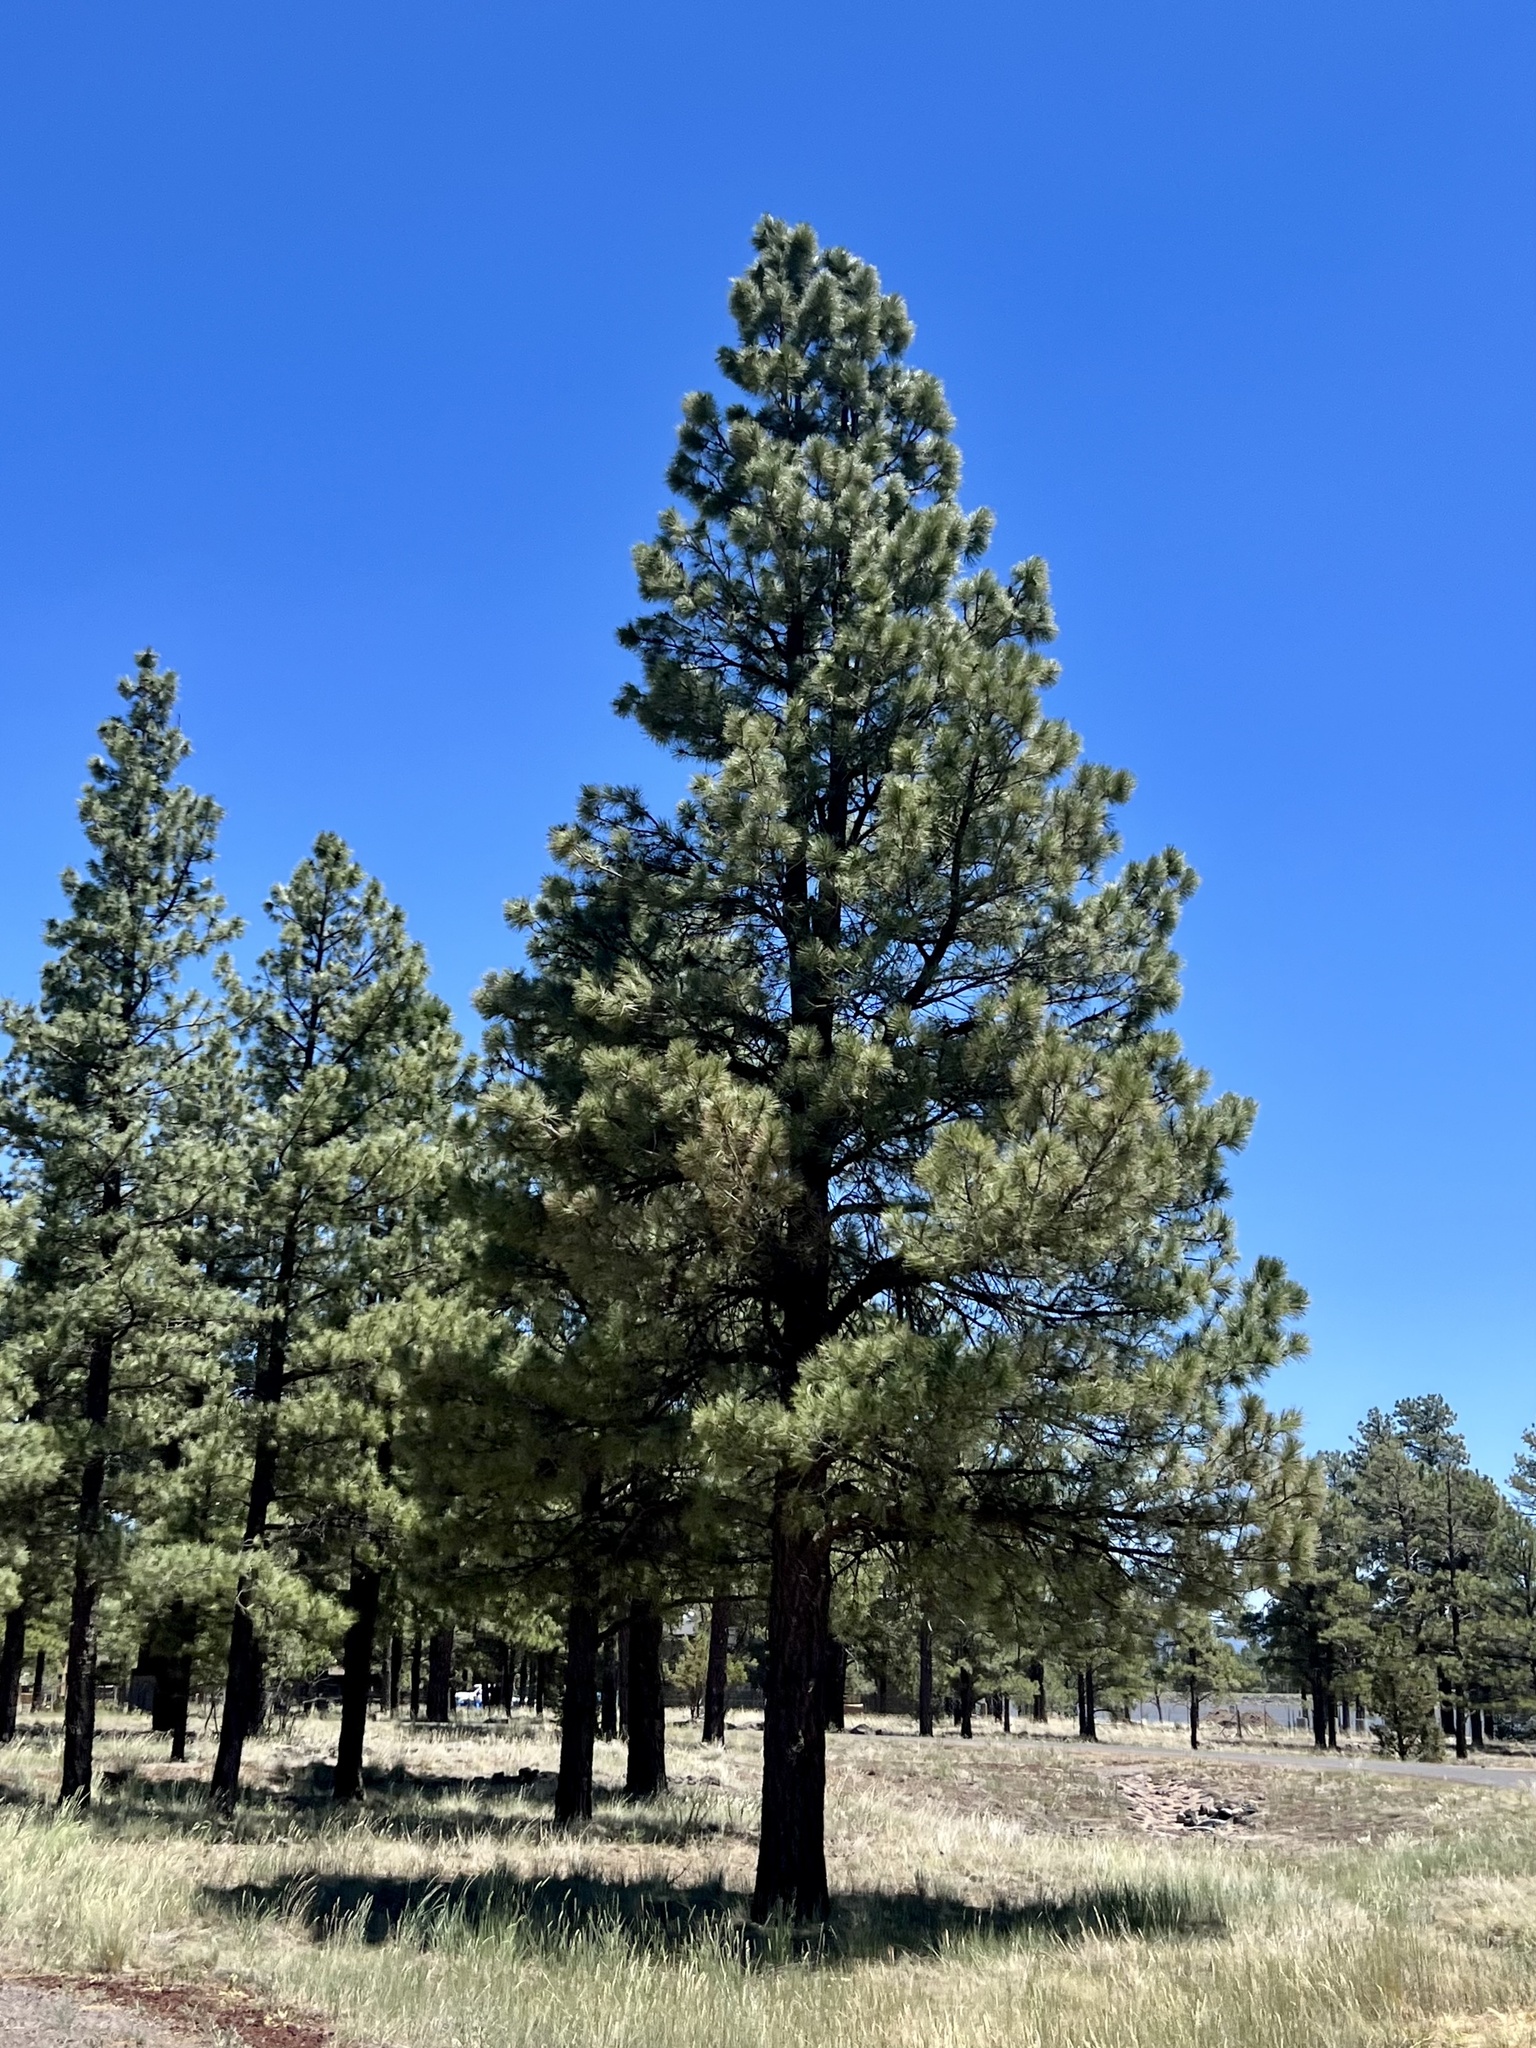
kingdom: Plantae
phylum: Tracheophyta
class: Pinopsida
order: Pinales
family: Pinaceae
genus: Pinus
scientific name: Pinus ponderosa
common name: Western yellow-pine
